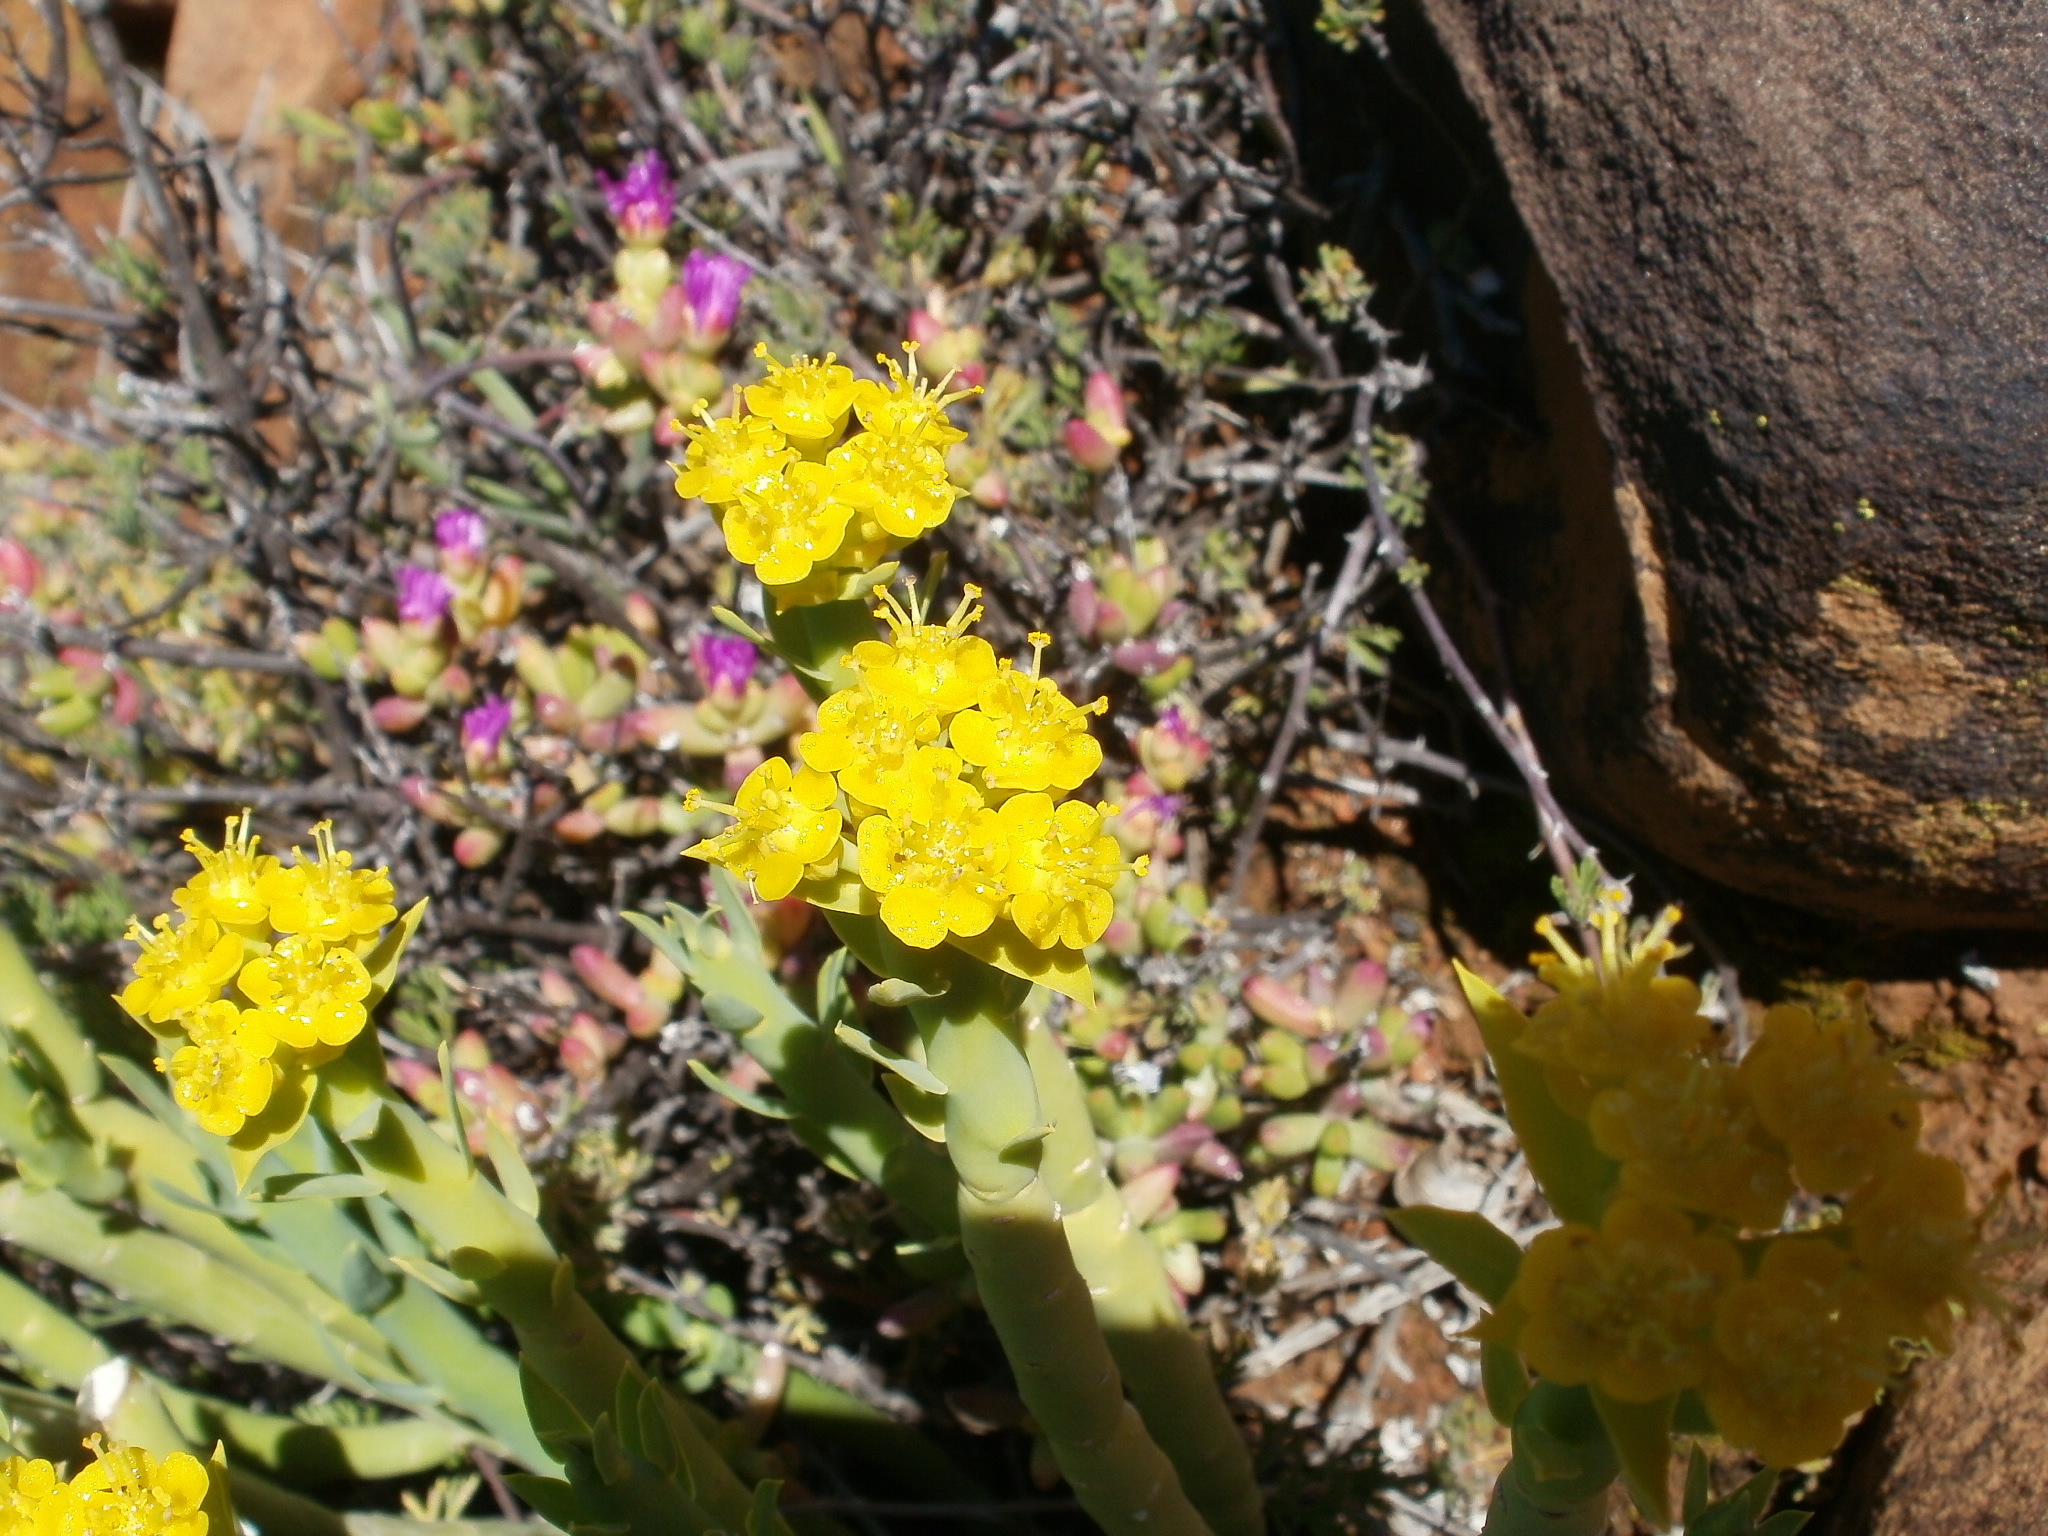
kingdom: Plantae
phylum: Tracheophyta
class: Magnoliopsida
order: Malpighiales
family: Euphorbiaceae
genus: Euphorbia
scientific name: Euphorbia mauritanica
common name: Jackal's-food
